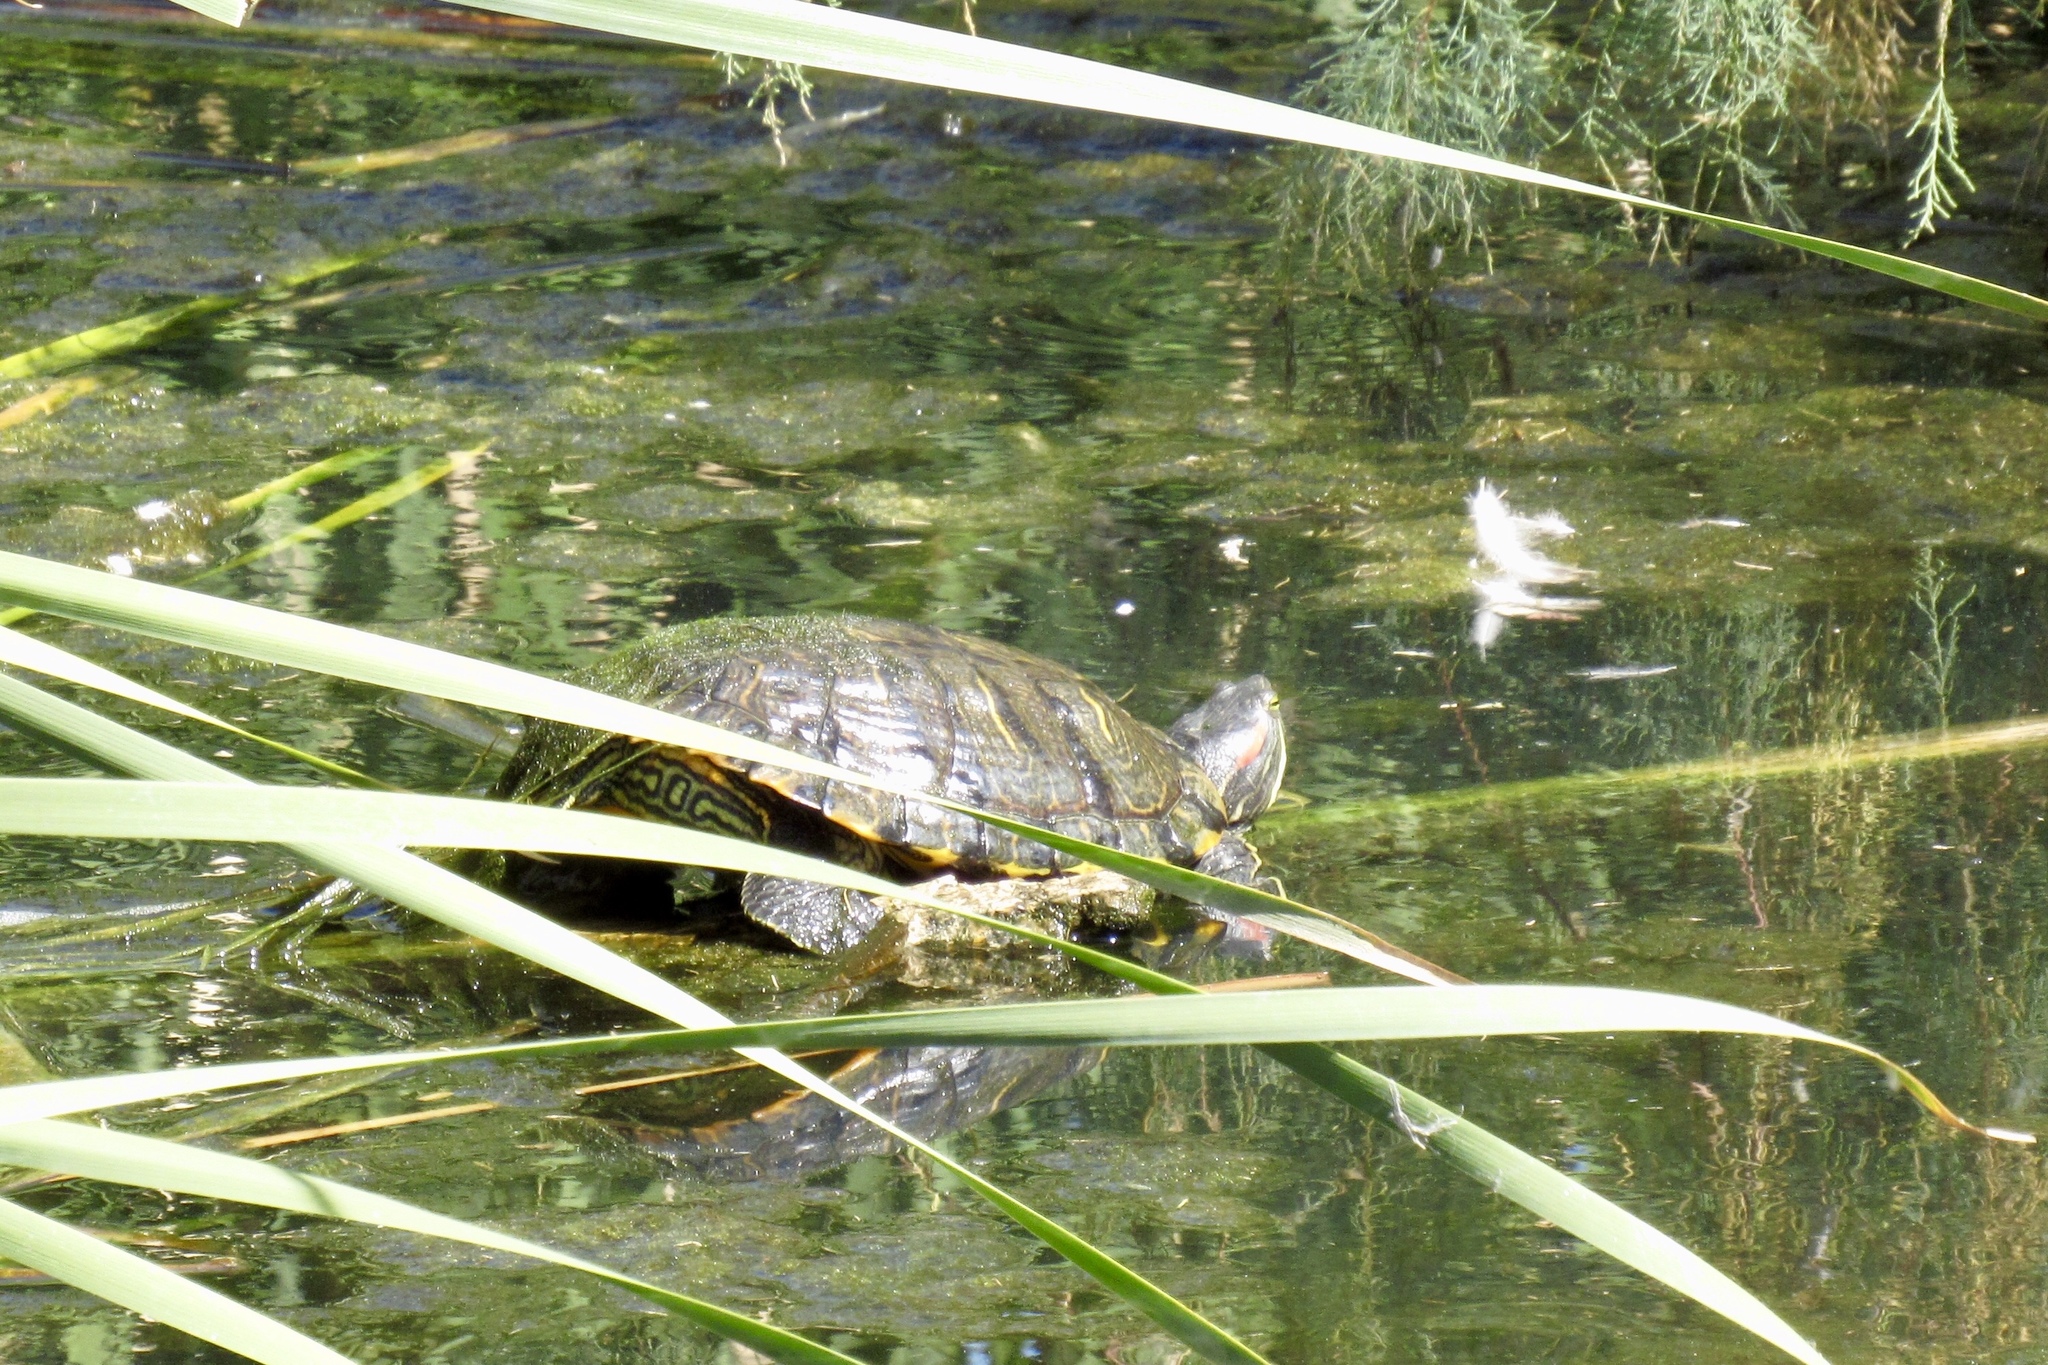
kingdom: Animalia
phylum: Chordata
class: Testudines
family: Emydidae
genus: Trachemys
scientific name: Trachemys scripta
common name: Slider
